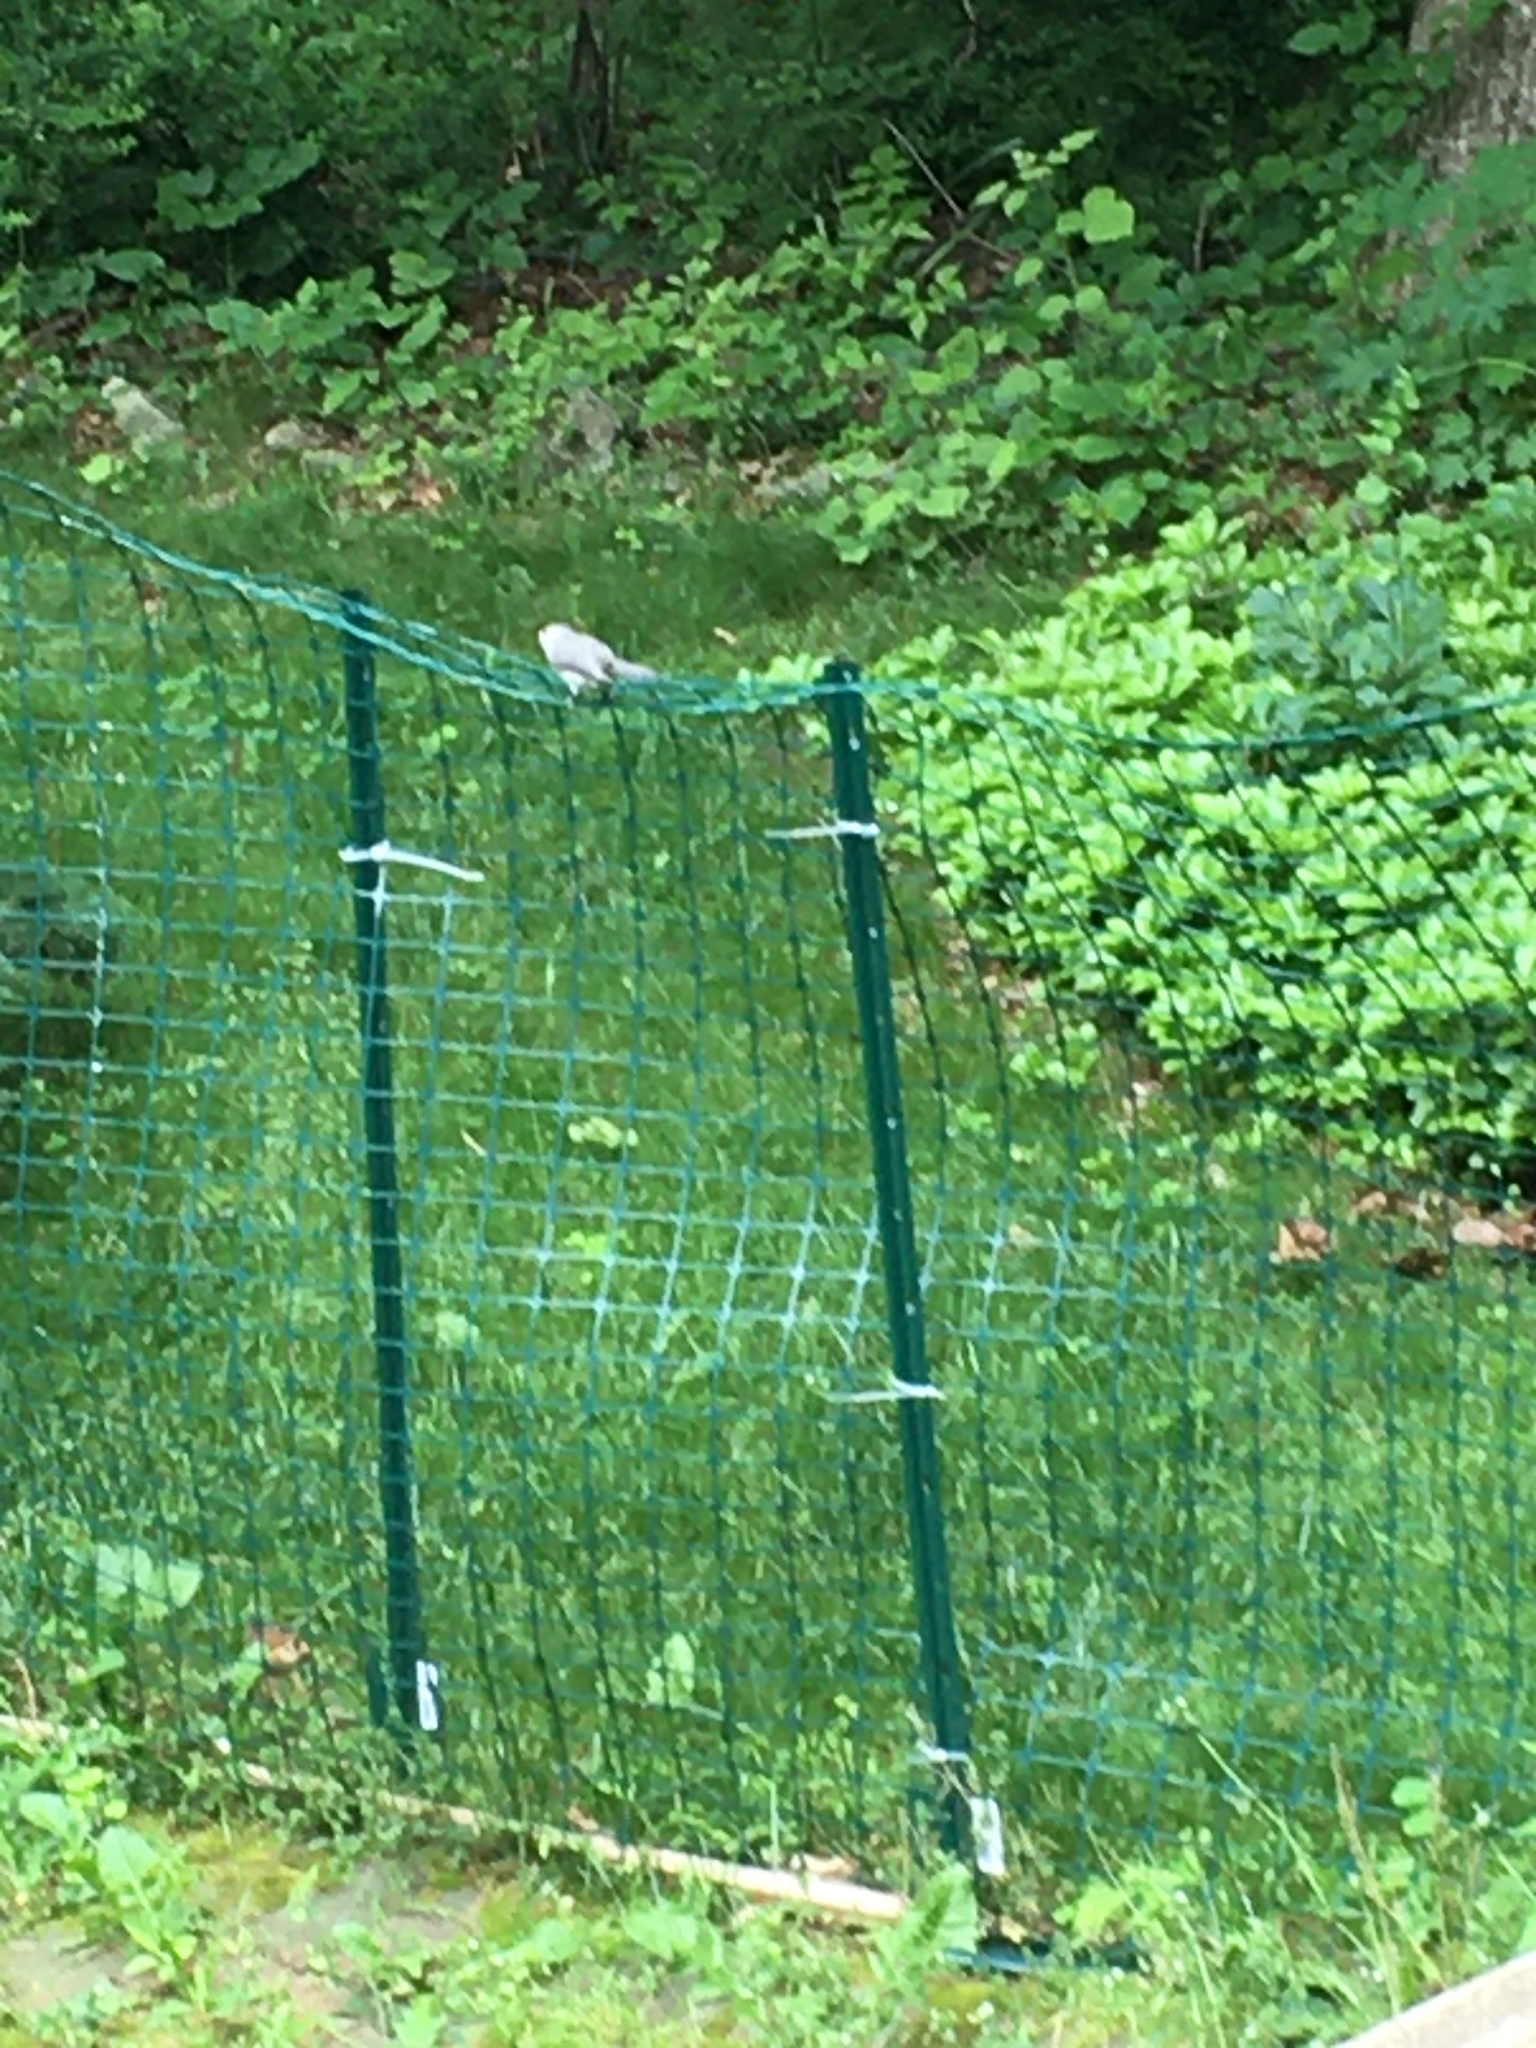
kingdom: Animalia
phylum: Chordata
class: Aves
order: Passeriformes
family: Paridae
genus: Baeolophus
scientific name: Baeolophus bicolor
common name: Tufted titmouse
